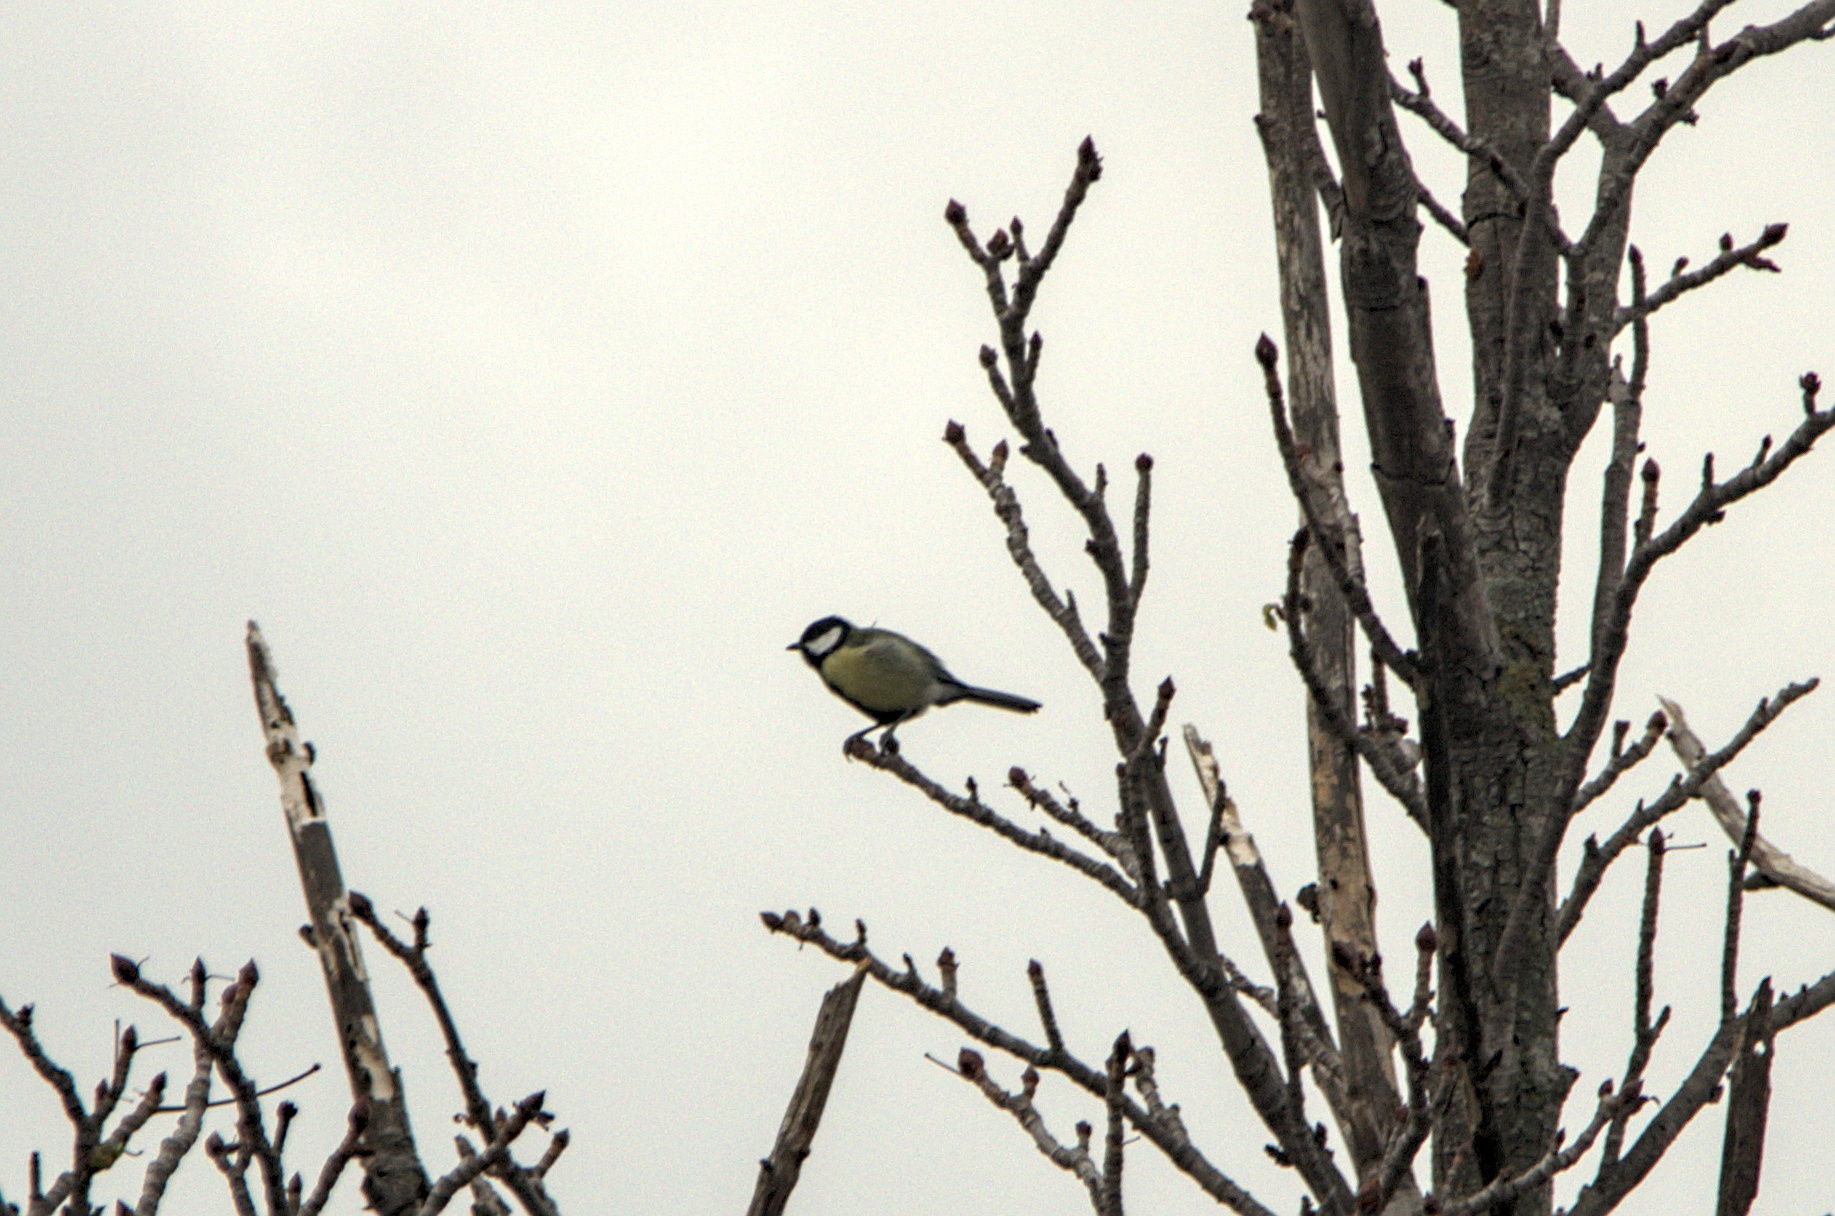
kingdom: Animalia
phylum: Chordata
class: Aves
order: Passeriformes
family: Paridae
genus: Parus
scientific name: Parus major
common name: Great tit
